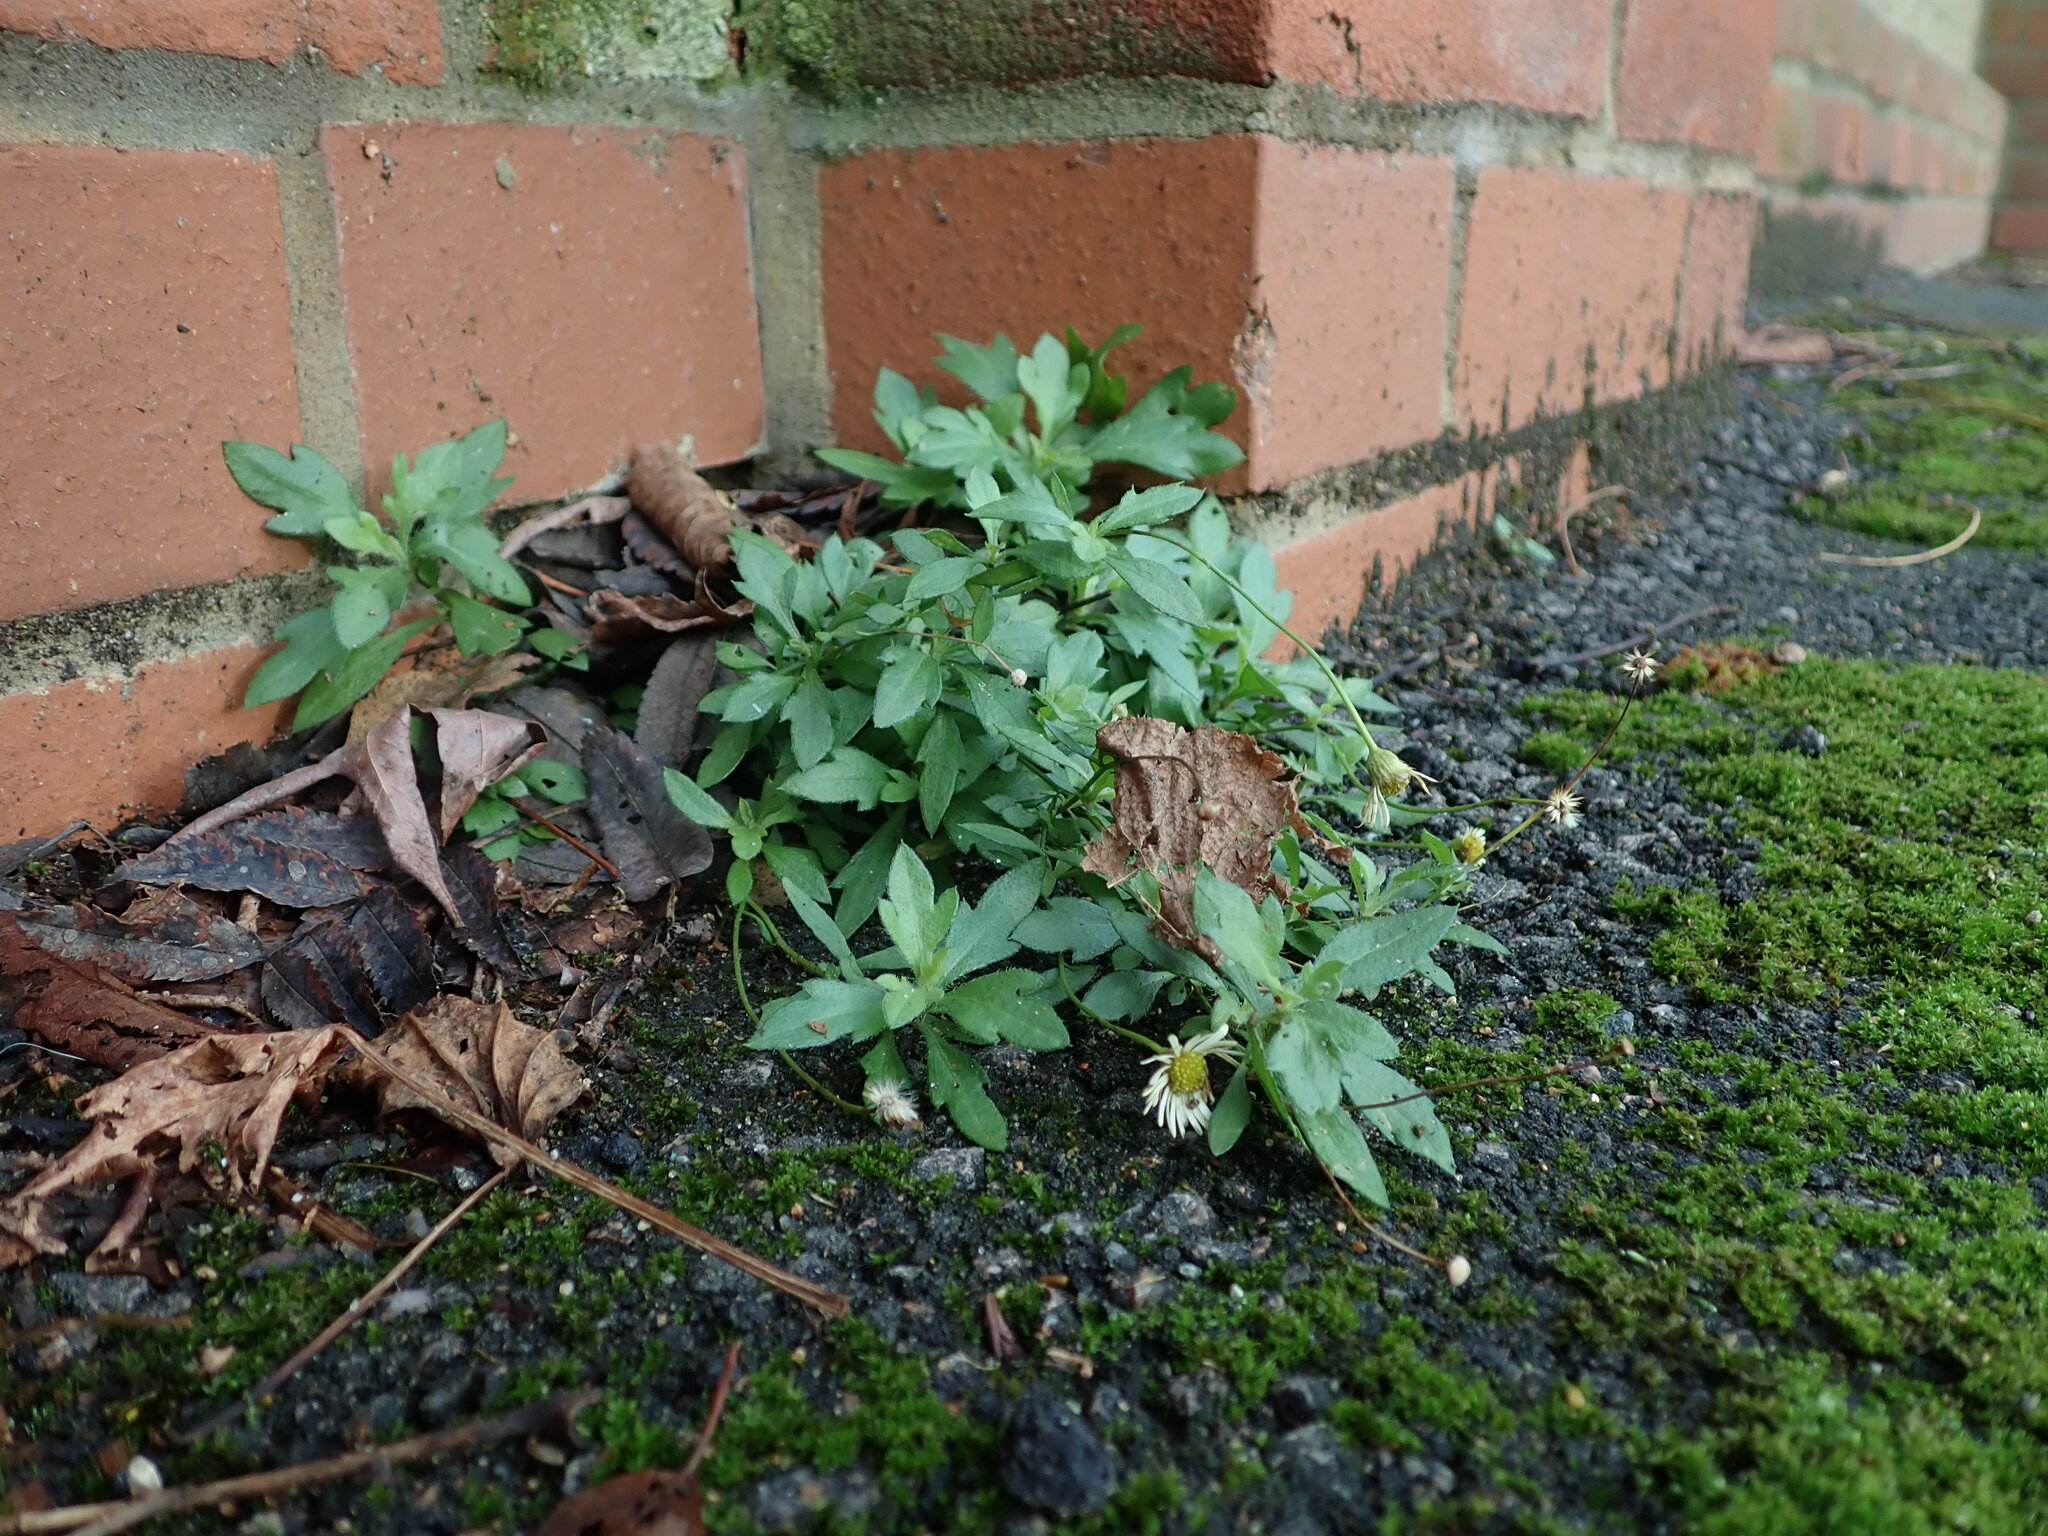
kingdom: Plantae
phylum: Tracheophyta
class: Magnoliopsida
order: Asterales
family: Asteraceae
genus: Erigeron
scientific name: Erigeron karvinskianus
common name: Mexican fleabane
